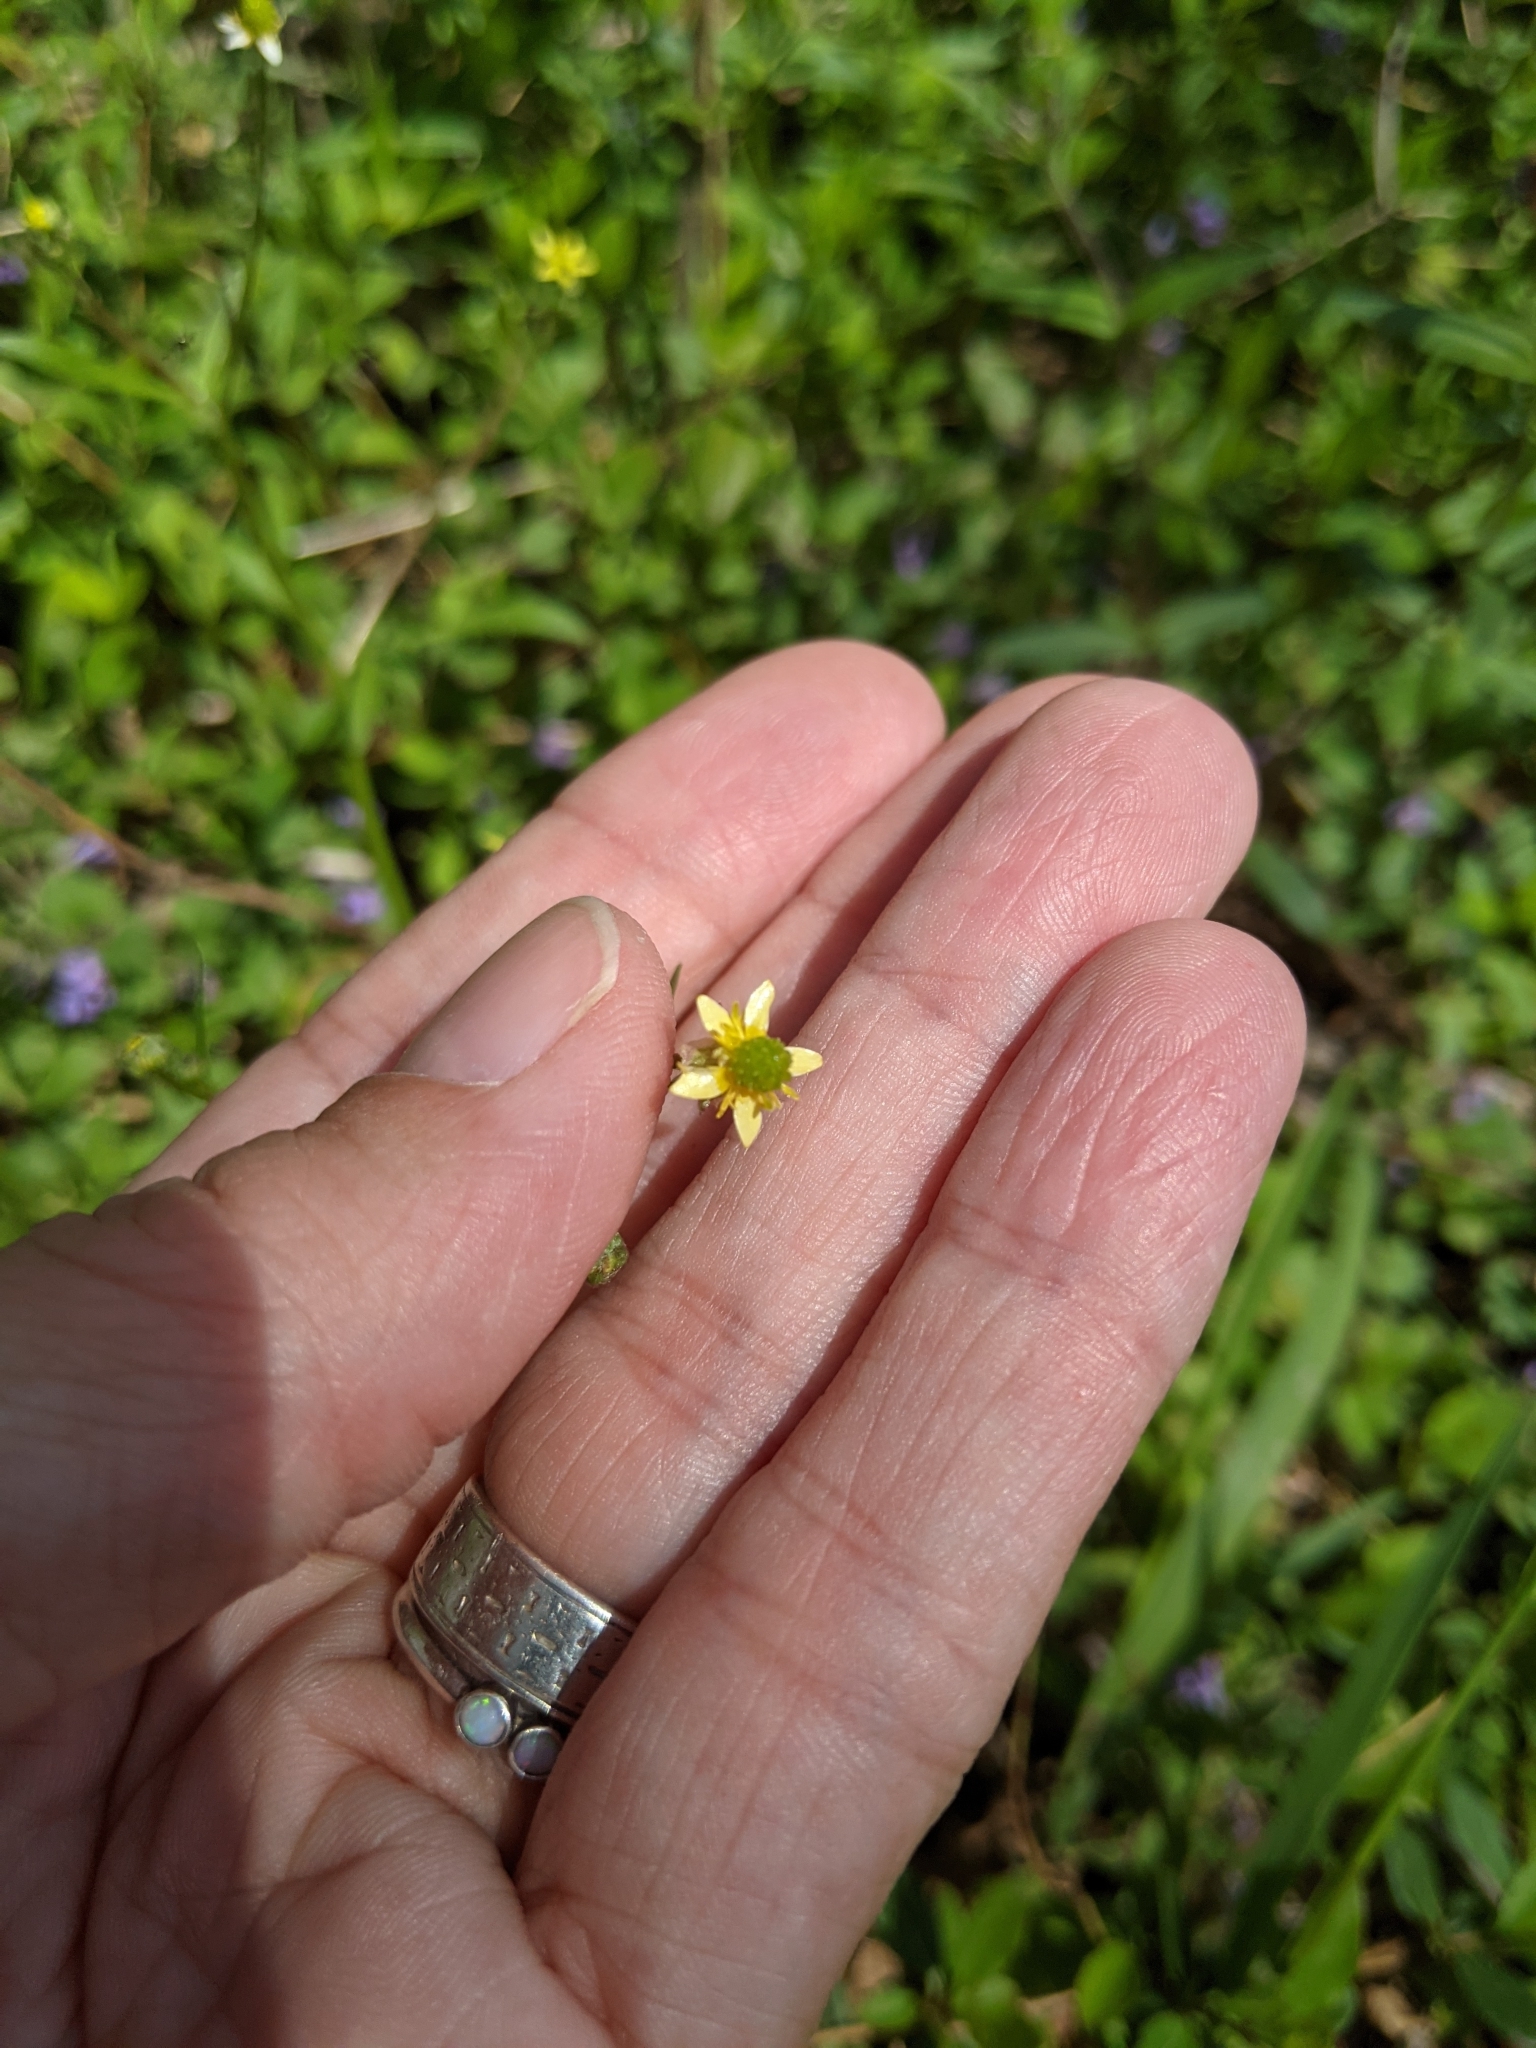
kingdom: Plantae
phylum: Tracheophyta
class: Magnoliopsida
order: Ranunculales
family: Ranunculaceae
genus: Ranunculus
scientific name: Ranunculus abortivus
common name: Early wood buttercup
